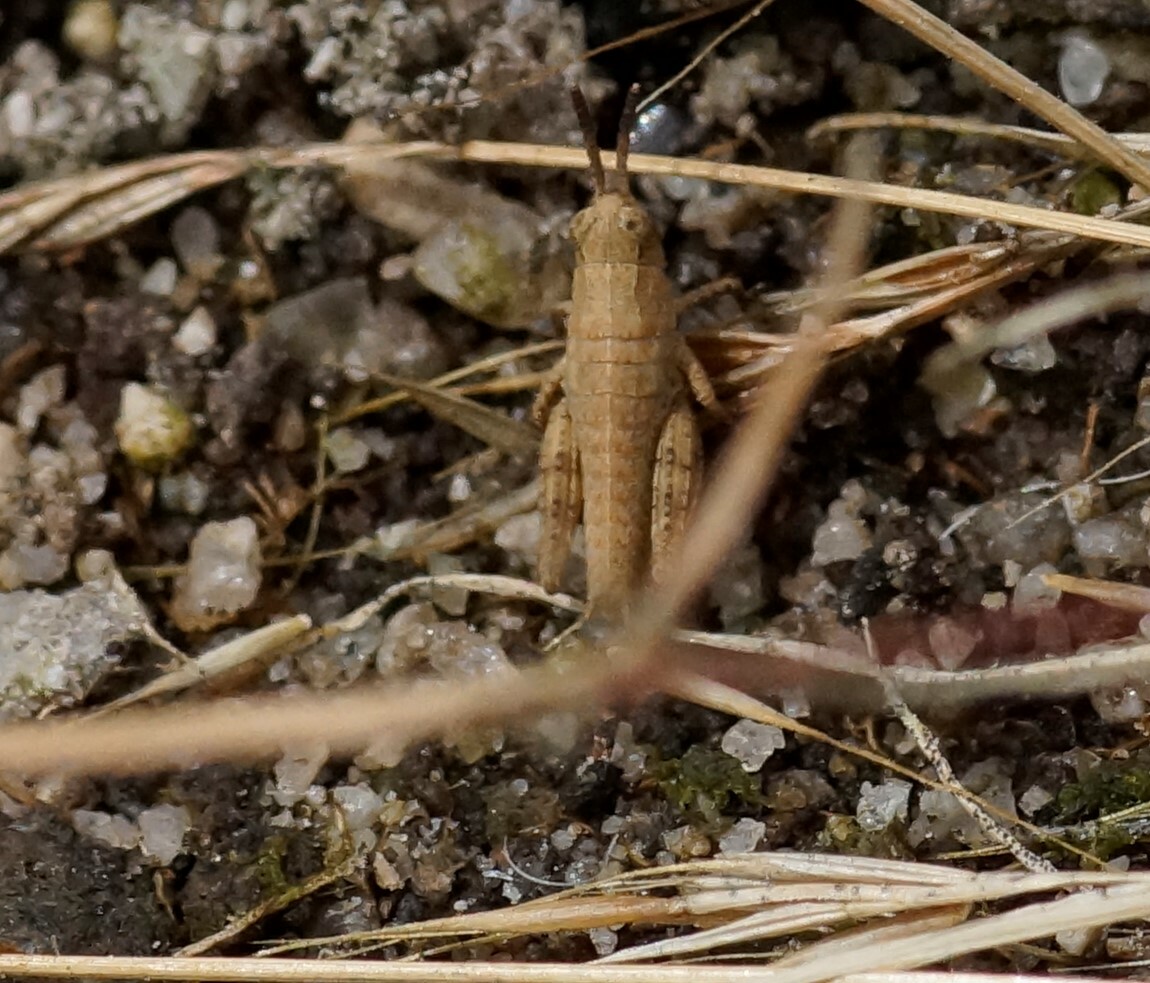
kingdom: Animalia
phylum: Arthropoda
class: Insecta
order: Orthoptera
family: Acrididae
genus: Phaulacridium
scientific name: Phaulacridium vittatum
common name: Wingless grasshopper
